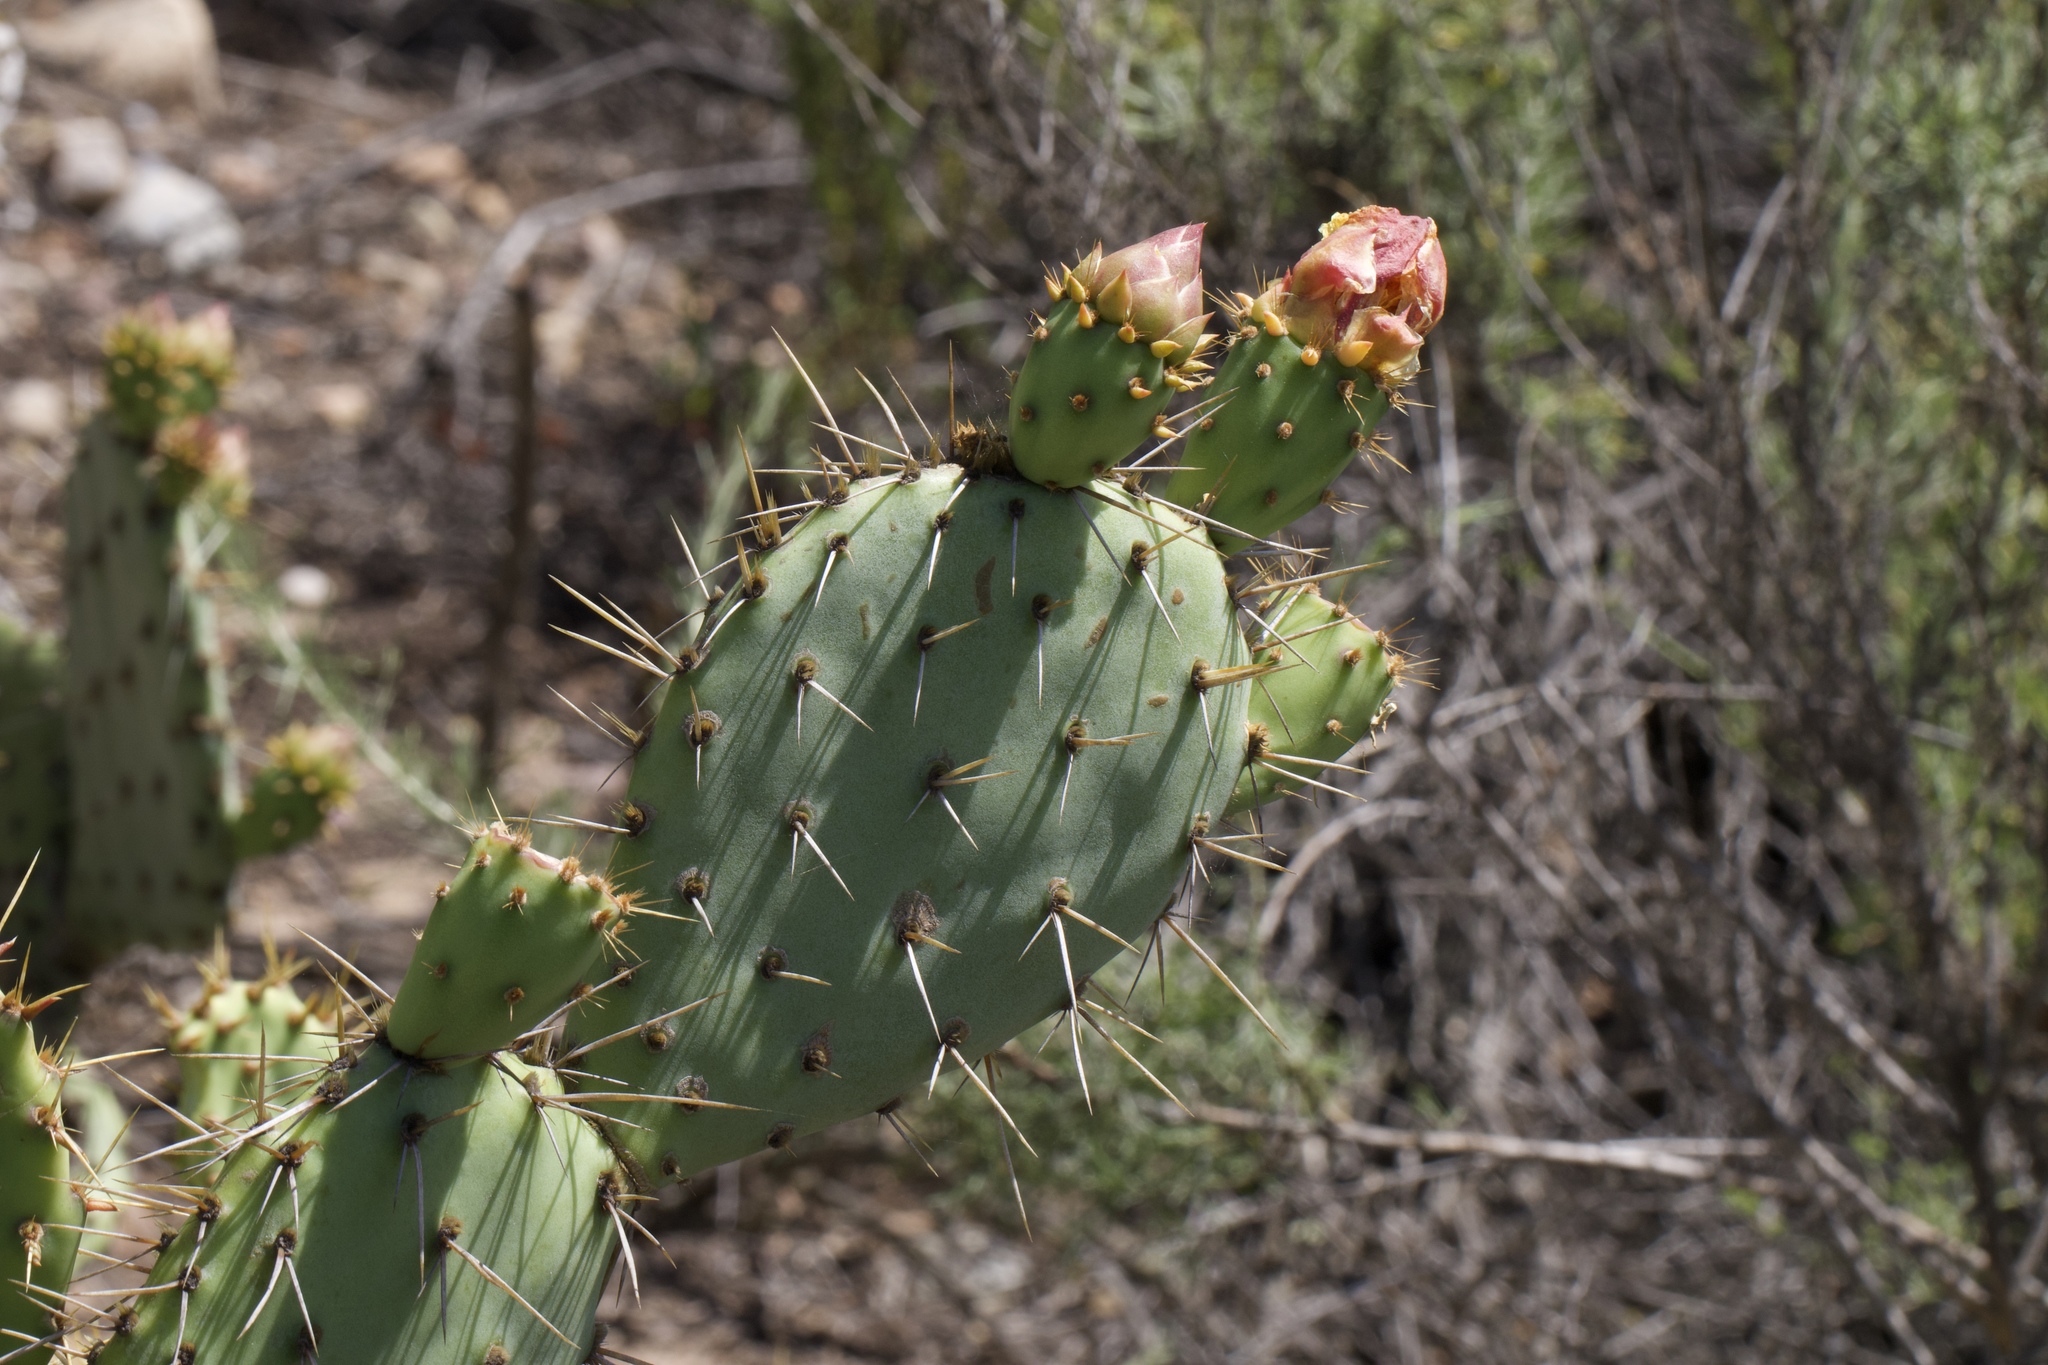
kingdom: Plantae
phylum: Tracheophyta
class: Magnoliopsida
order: Caryophyllales
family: Cactaceae
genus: Opuntia
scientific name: Opuntia littoralis
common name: Coastal prickly-pear
